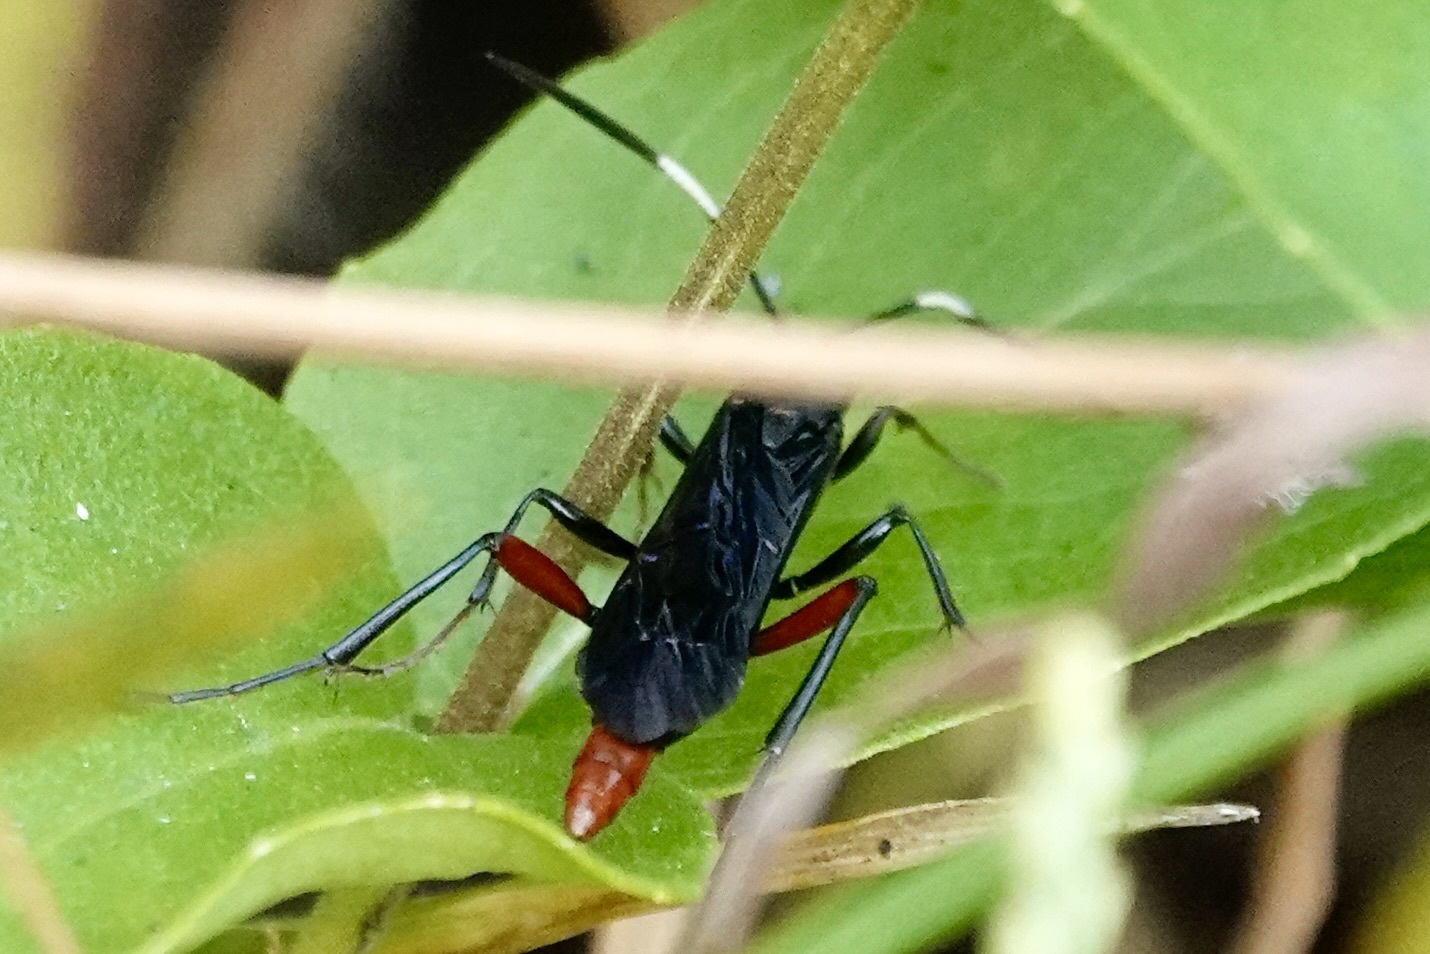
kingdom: Animalia
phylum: Arthropoda
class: Insecta
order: Hymenoptera
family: Ichneumonidae
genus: Limonethe
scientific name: Limonethe maurator
